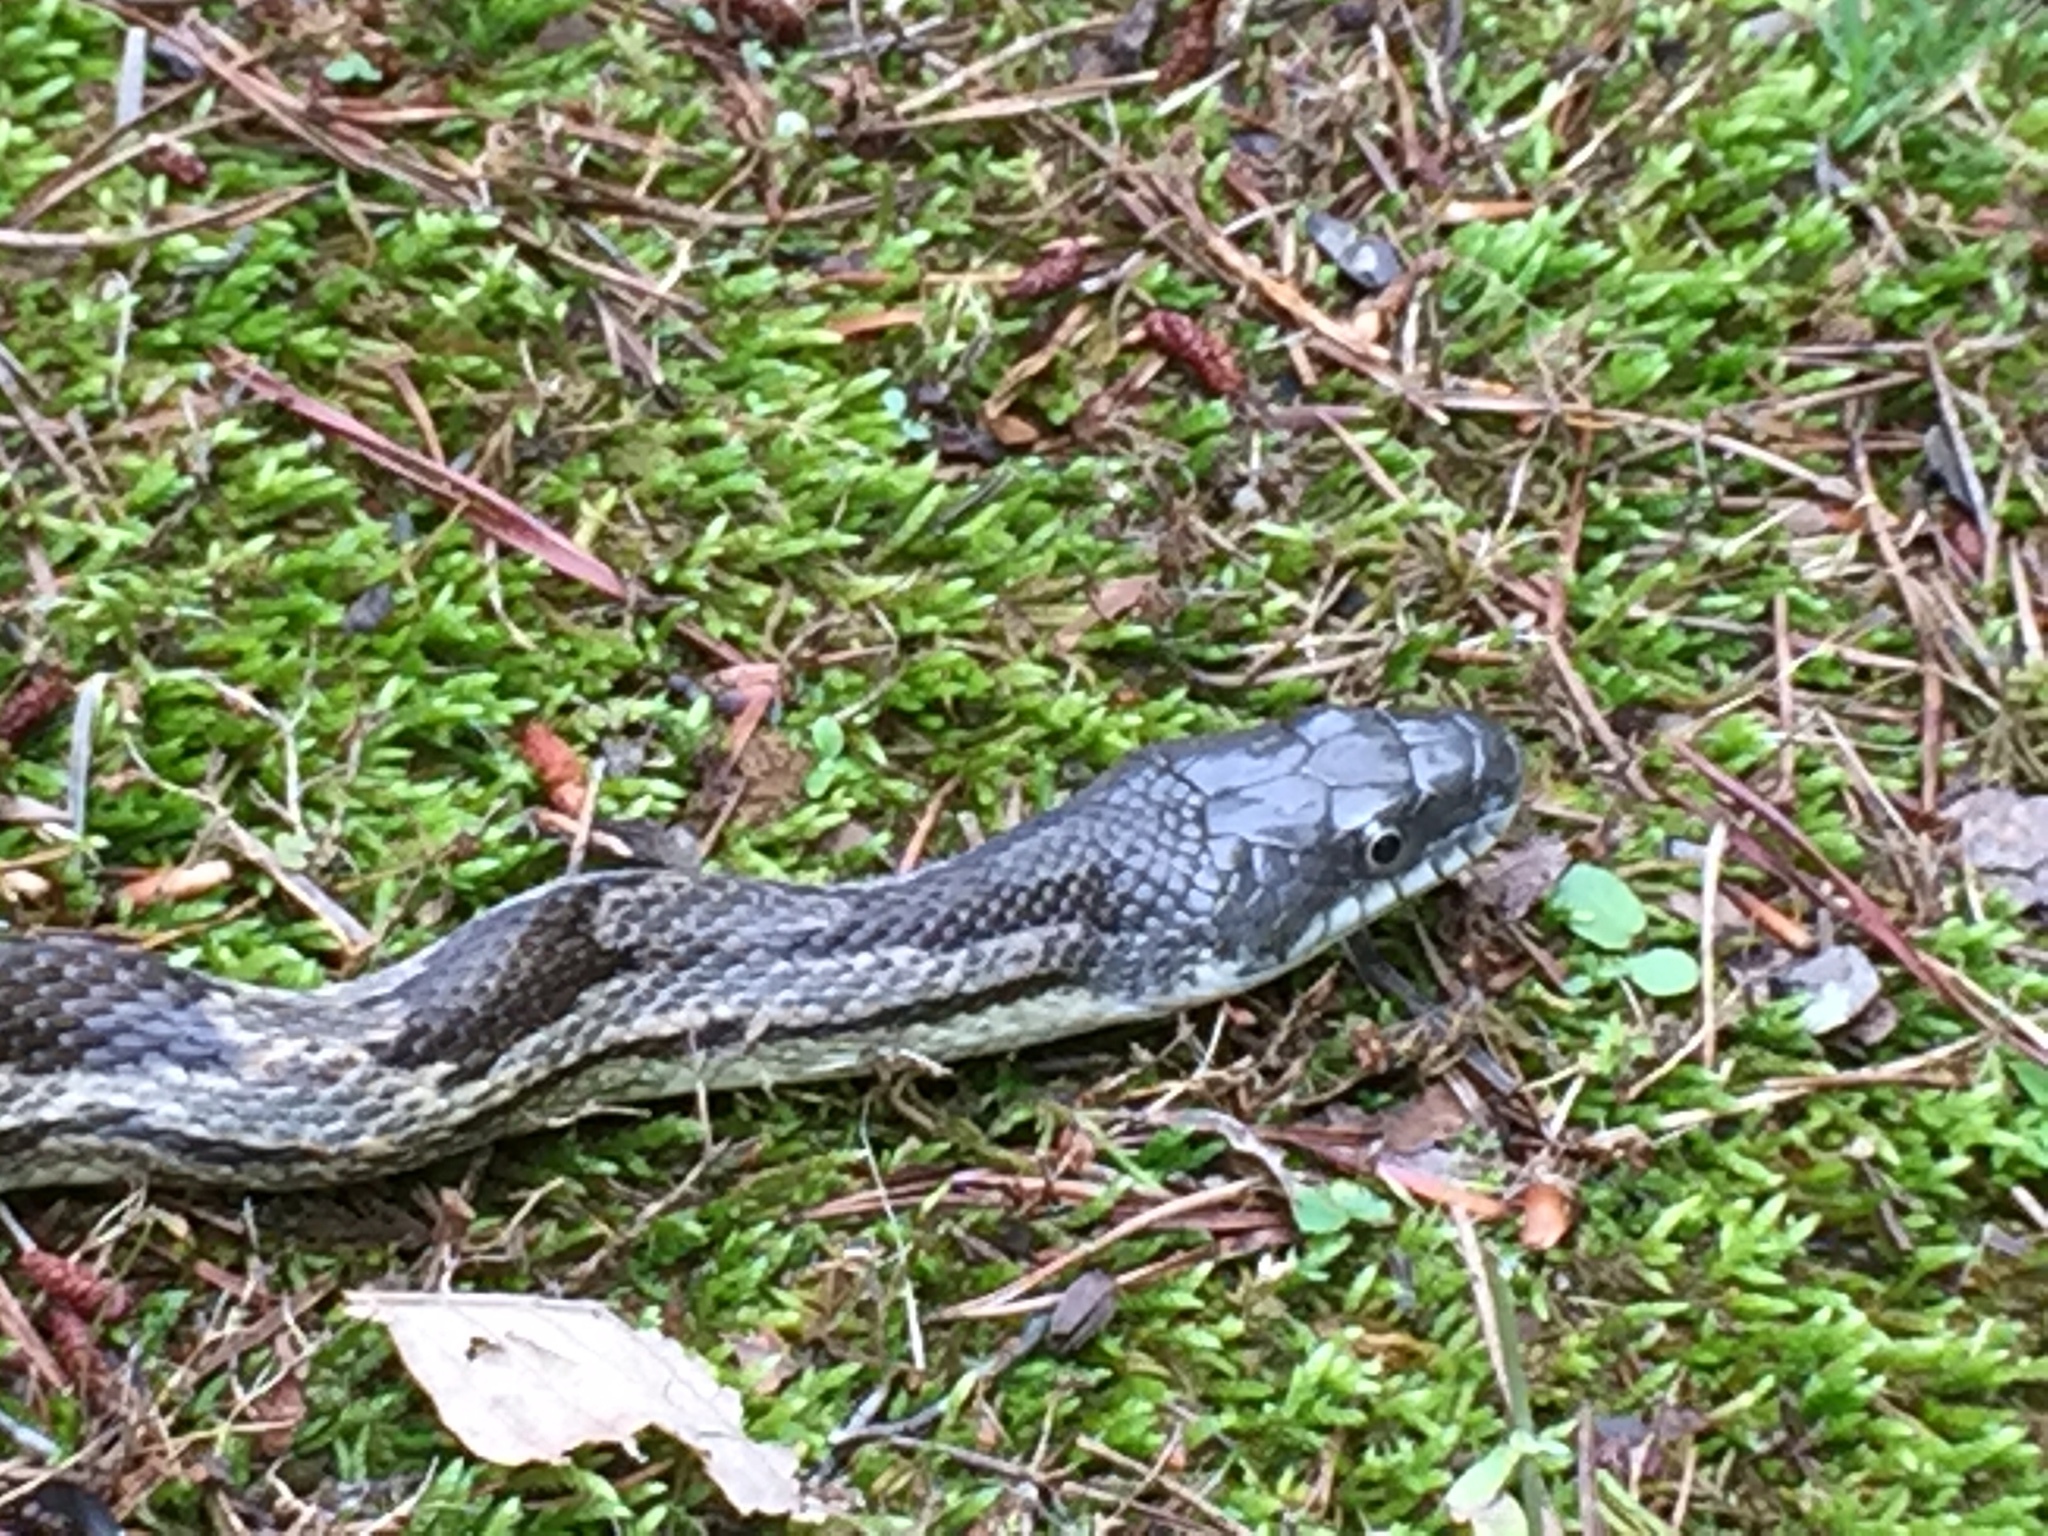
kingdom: Animalia
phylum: Chordata
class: Squamata
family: Colubridae
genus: Pantherophis
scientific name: Pantherophis spiloides
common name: Gray rat snake
